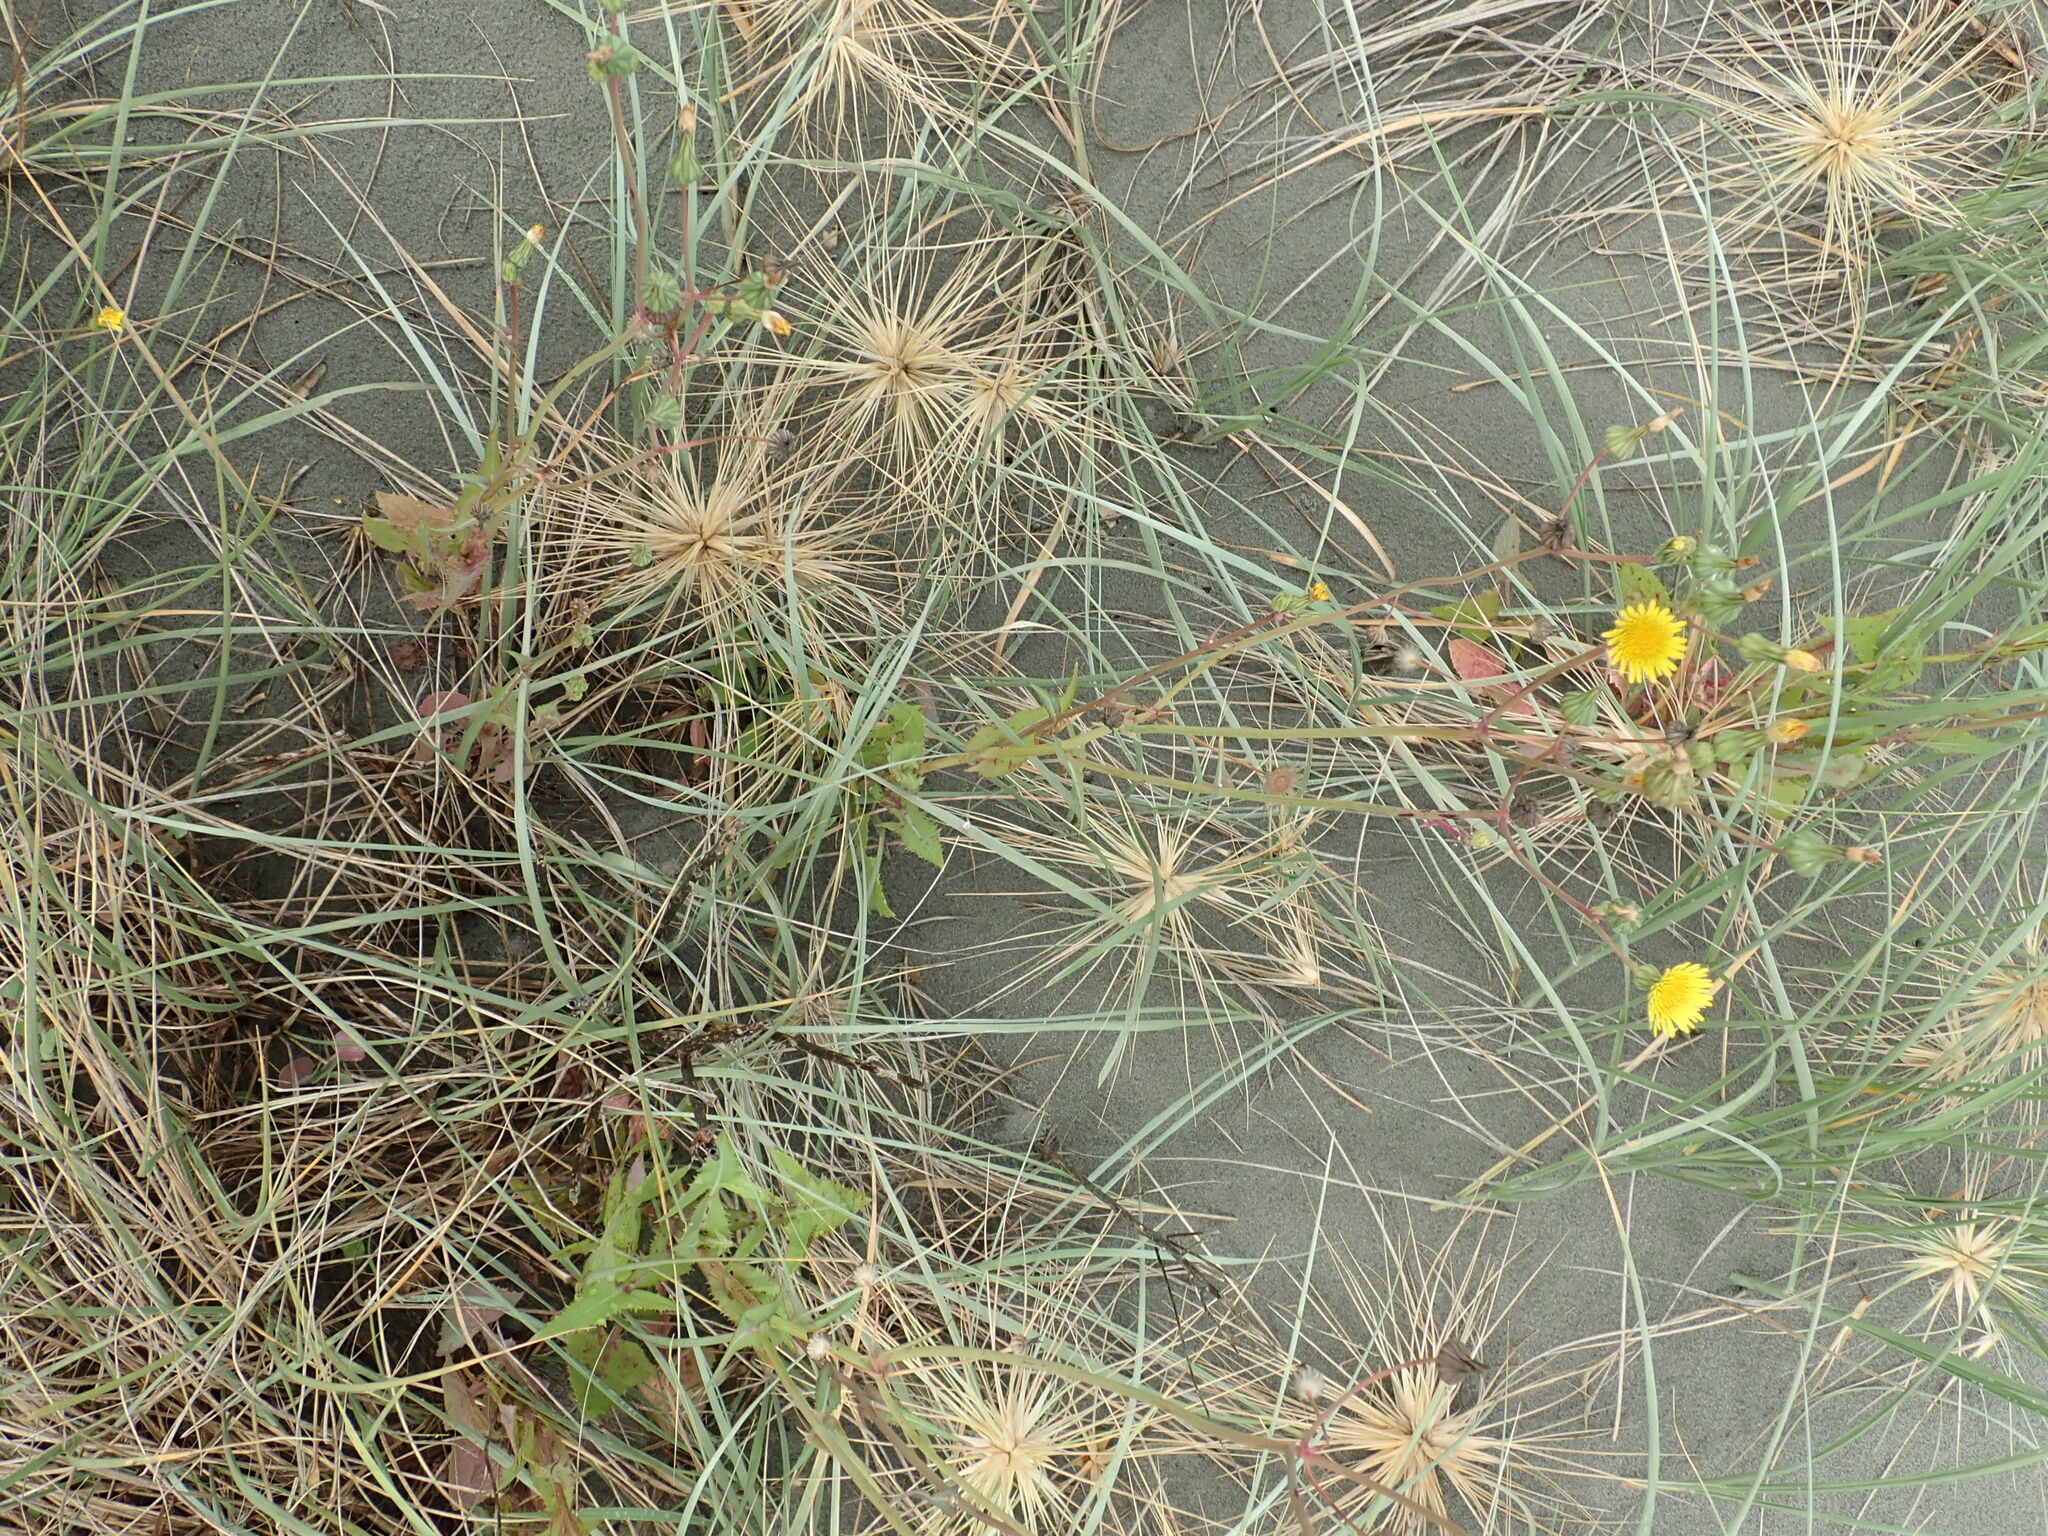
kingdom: Plantae
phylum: Tracheophyta
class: Magnoliopsida
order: Asterales
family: Asteraceae
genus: Sonchus
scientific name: Sonchus oleraceus
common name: Common sowthistle
